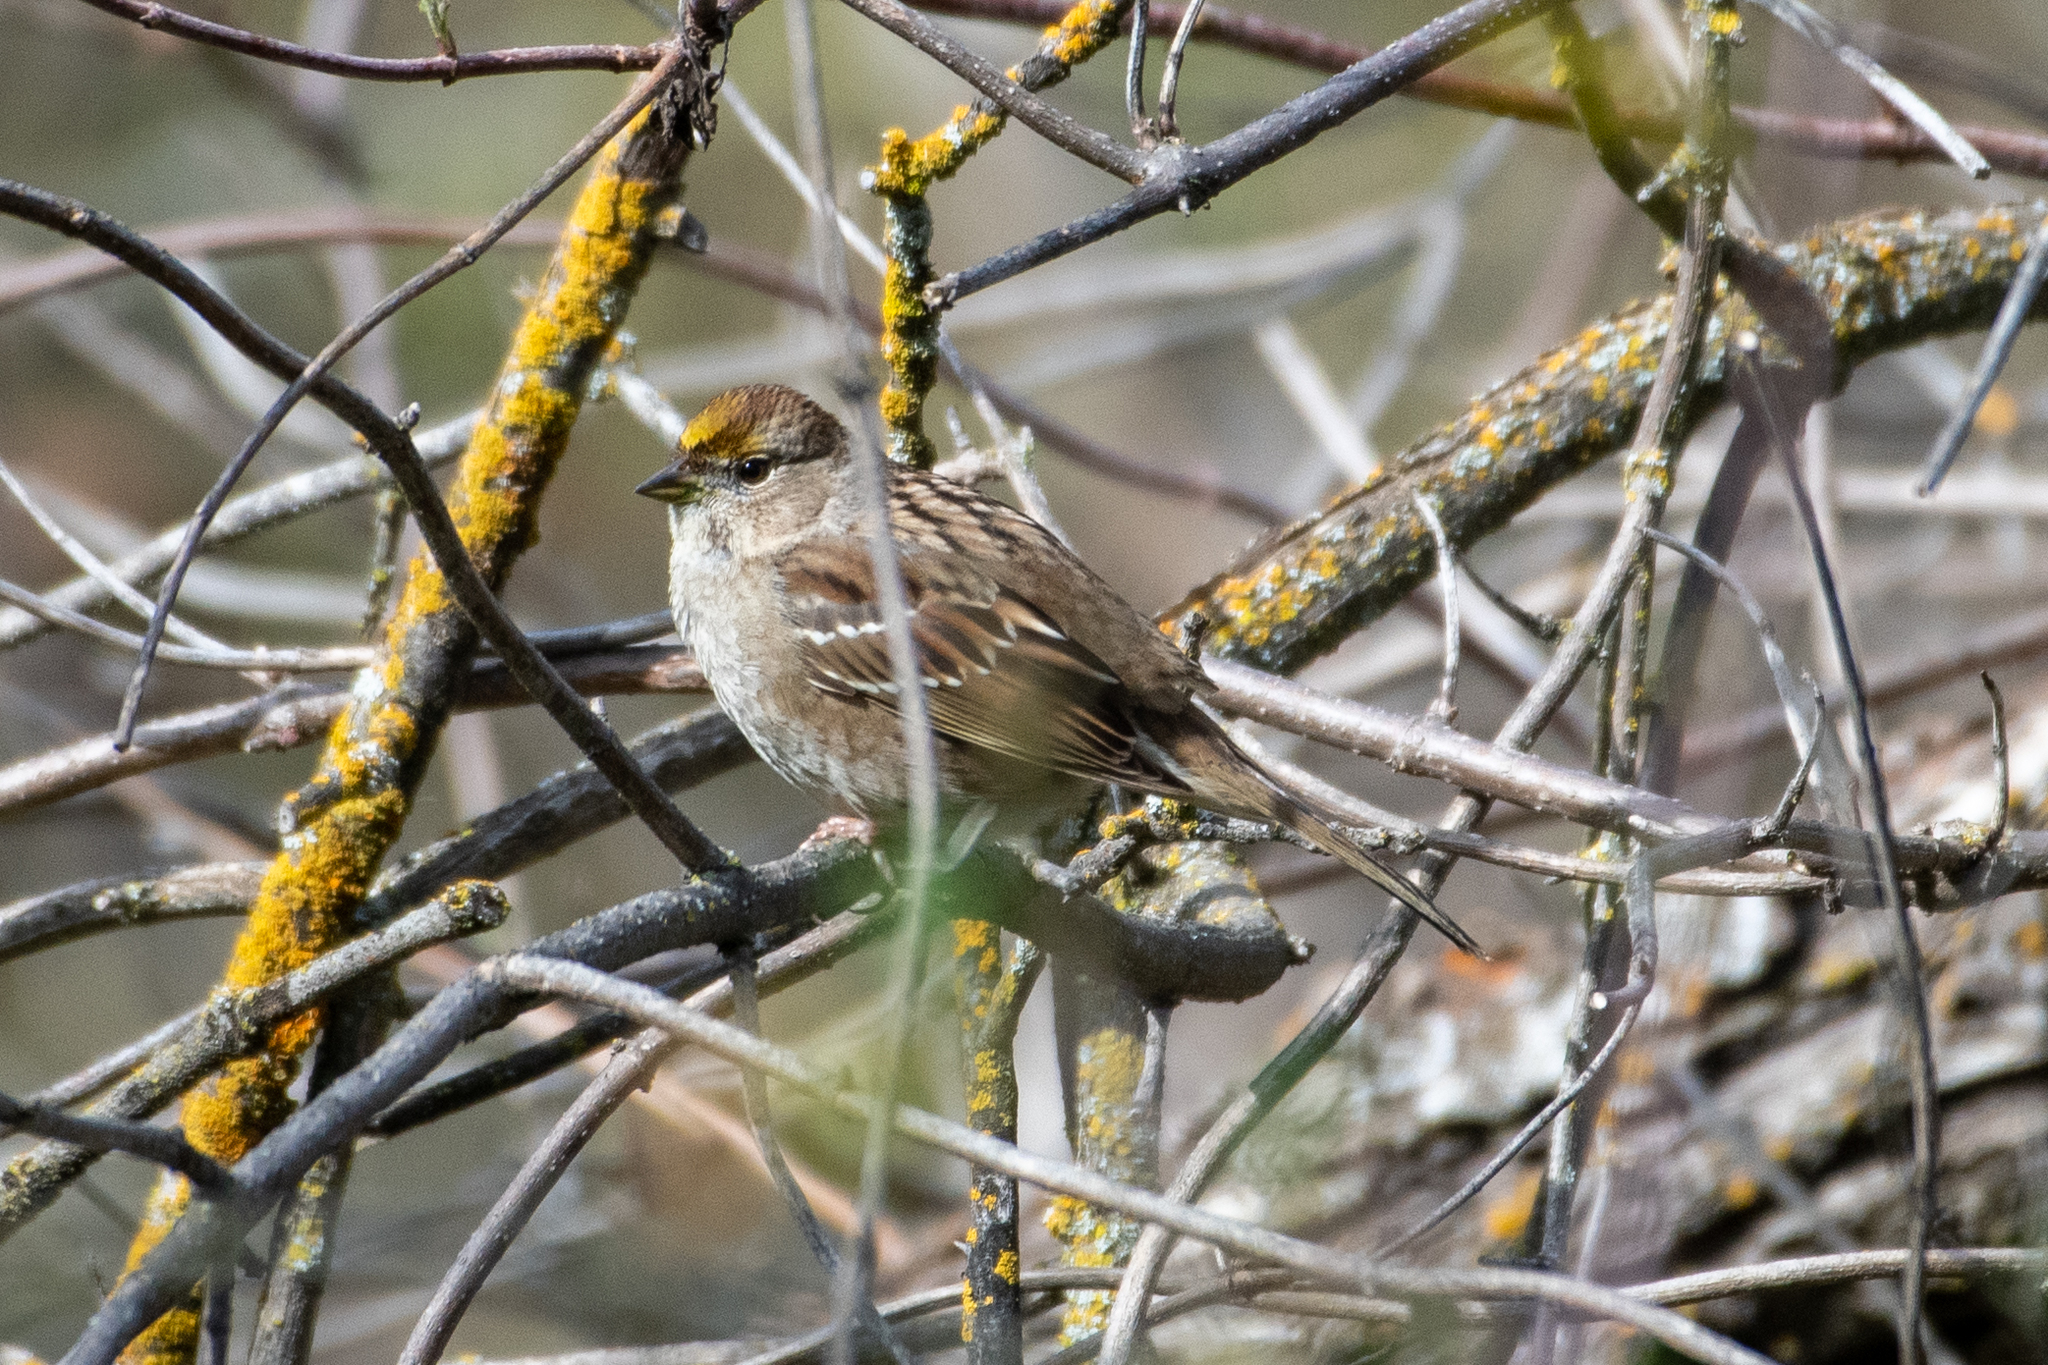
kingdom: Animalia
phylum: Chordata
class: Aves
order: Passeriformes
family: Passerellidae
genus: Zonotrichia
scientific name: Zonotrichia atricapilla
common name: Golden-crowned sparrow
